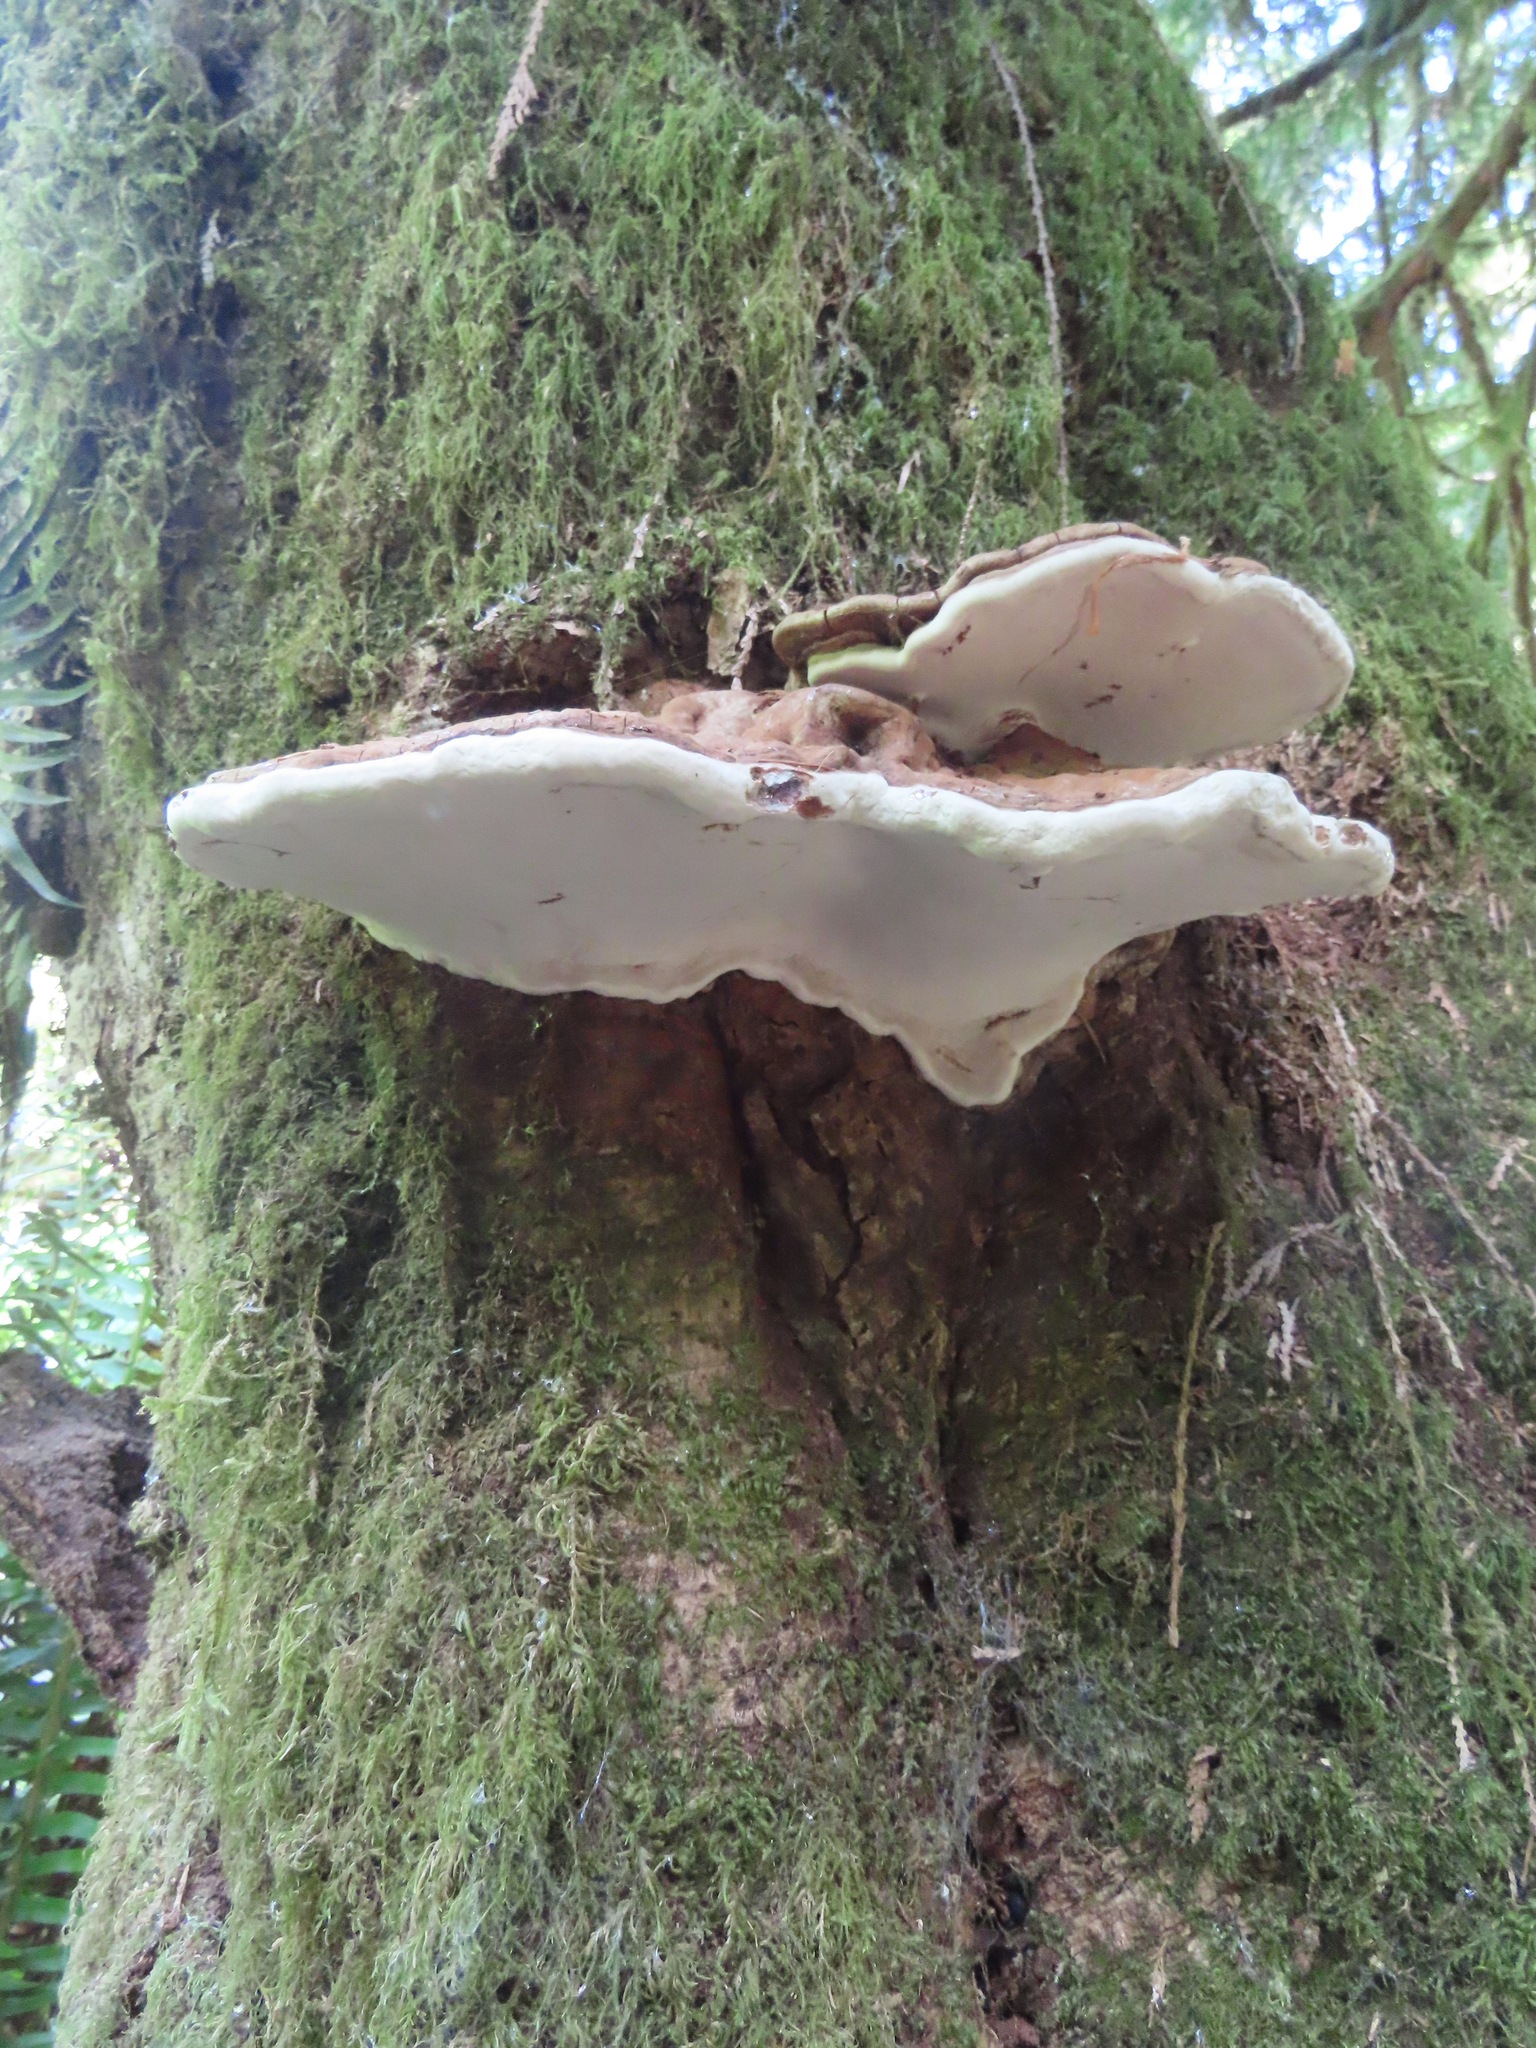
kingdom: Fungi
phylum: Basidiomycota
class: Agaricomycetes
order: Polyporales
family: Polyporaceae
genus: Ganoderma
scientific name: Ganoderma applanatum
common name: Artist's bracket
